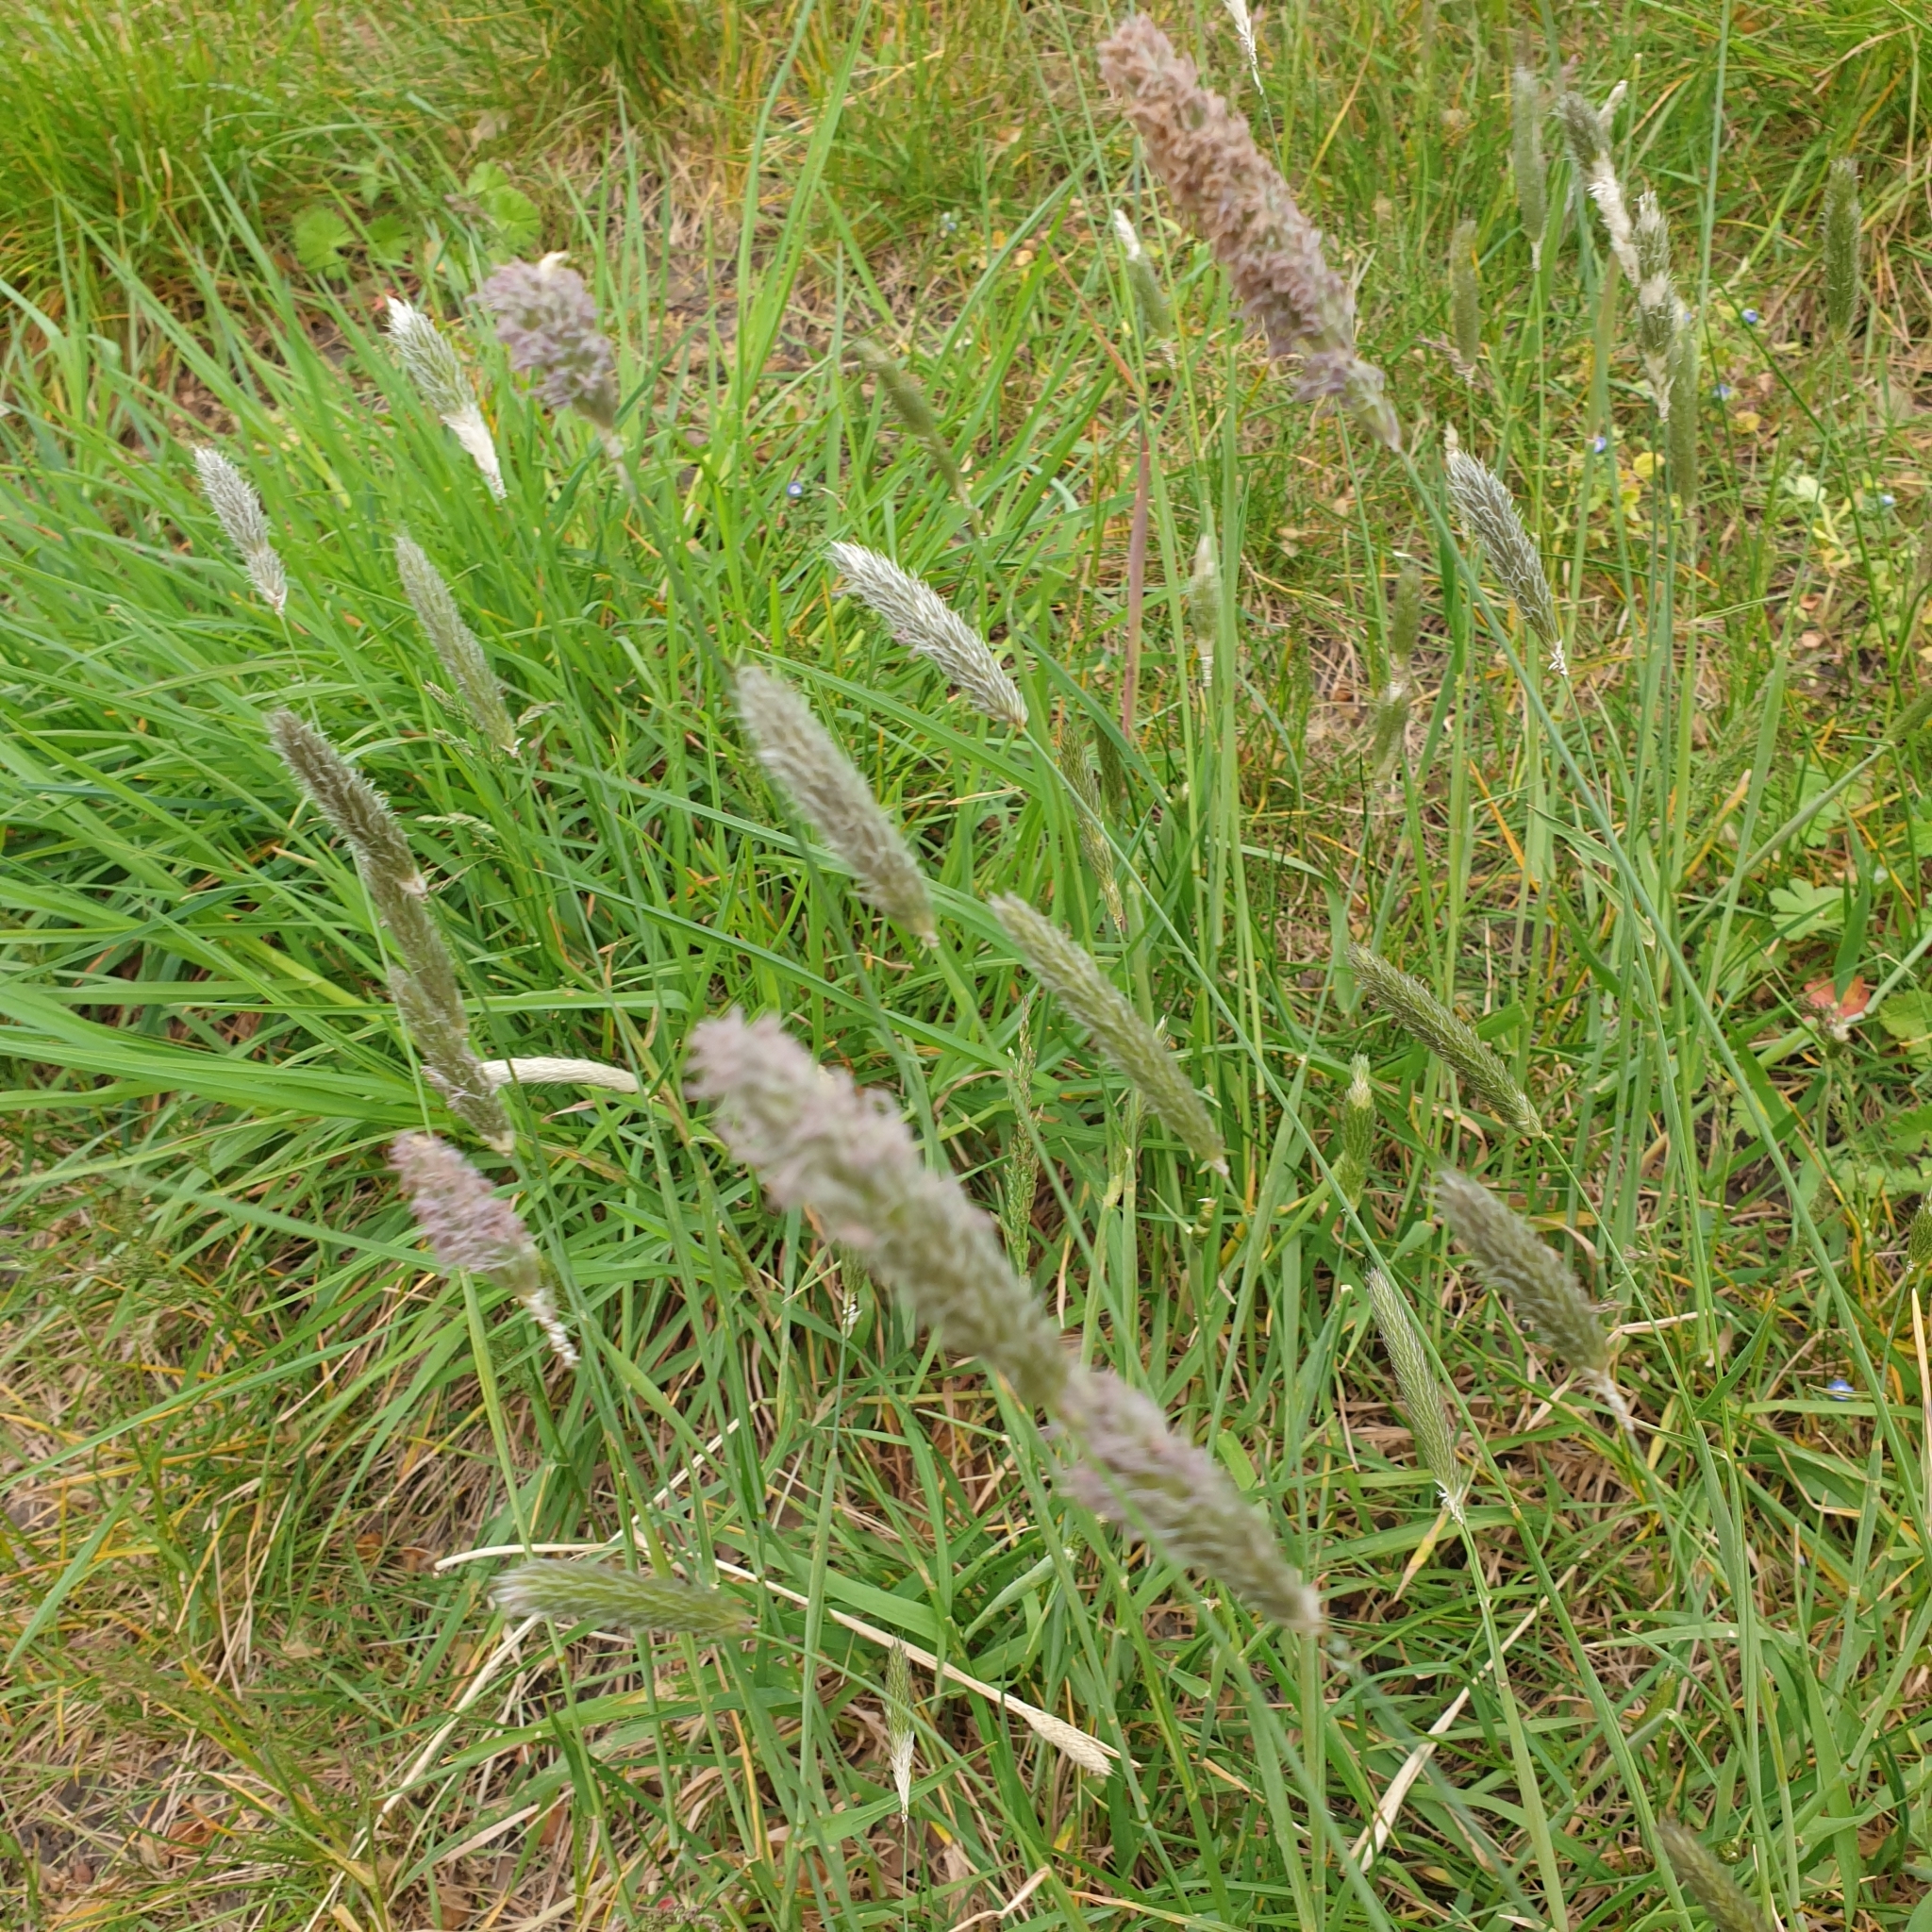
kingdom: Plantae
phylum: Tracheophyta
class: Liliopsida
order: Poales
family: Poaceae
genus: Alopecurus
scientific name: Alopecurus pratensis
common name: Meadow foxtail
